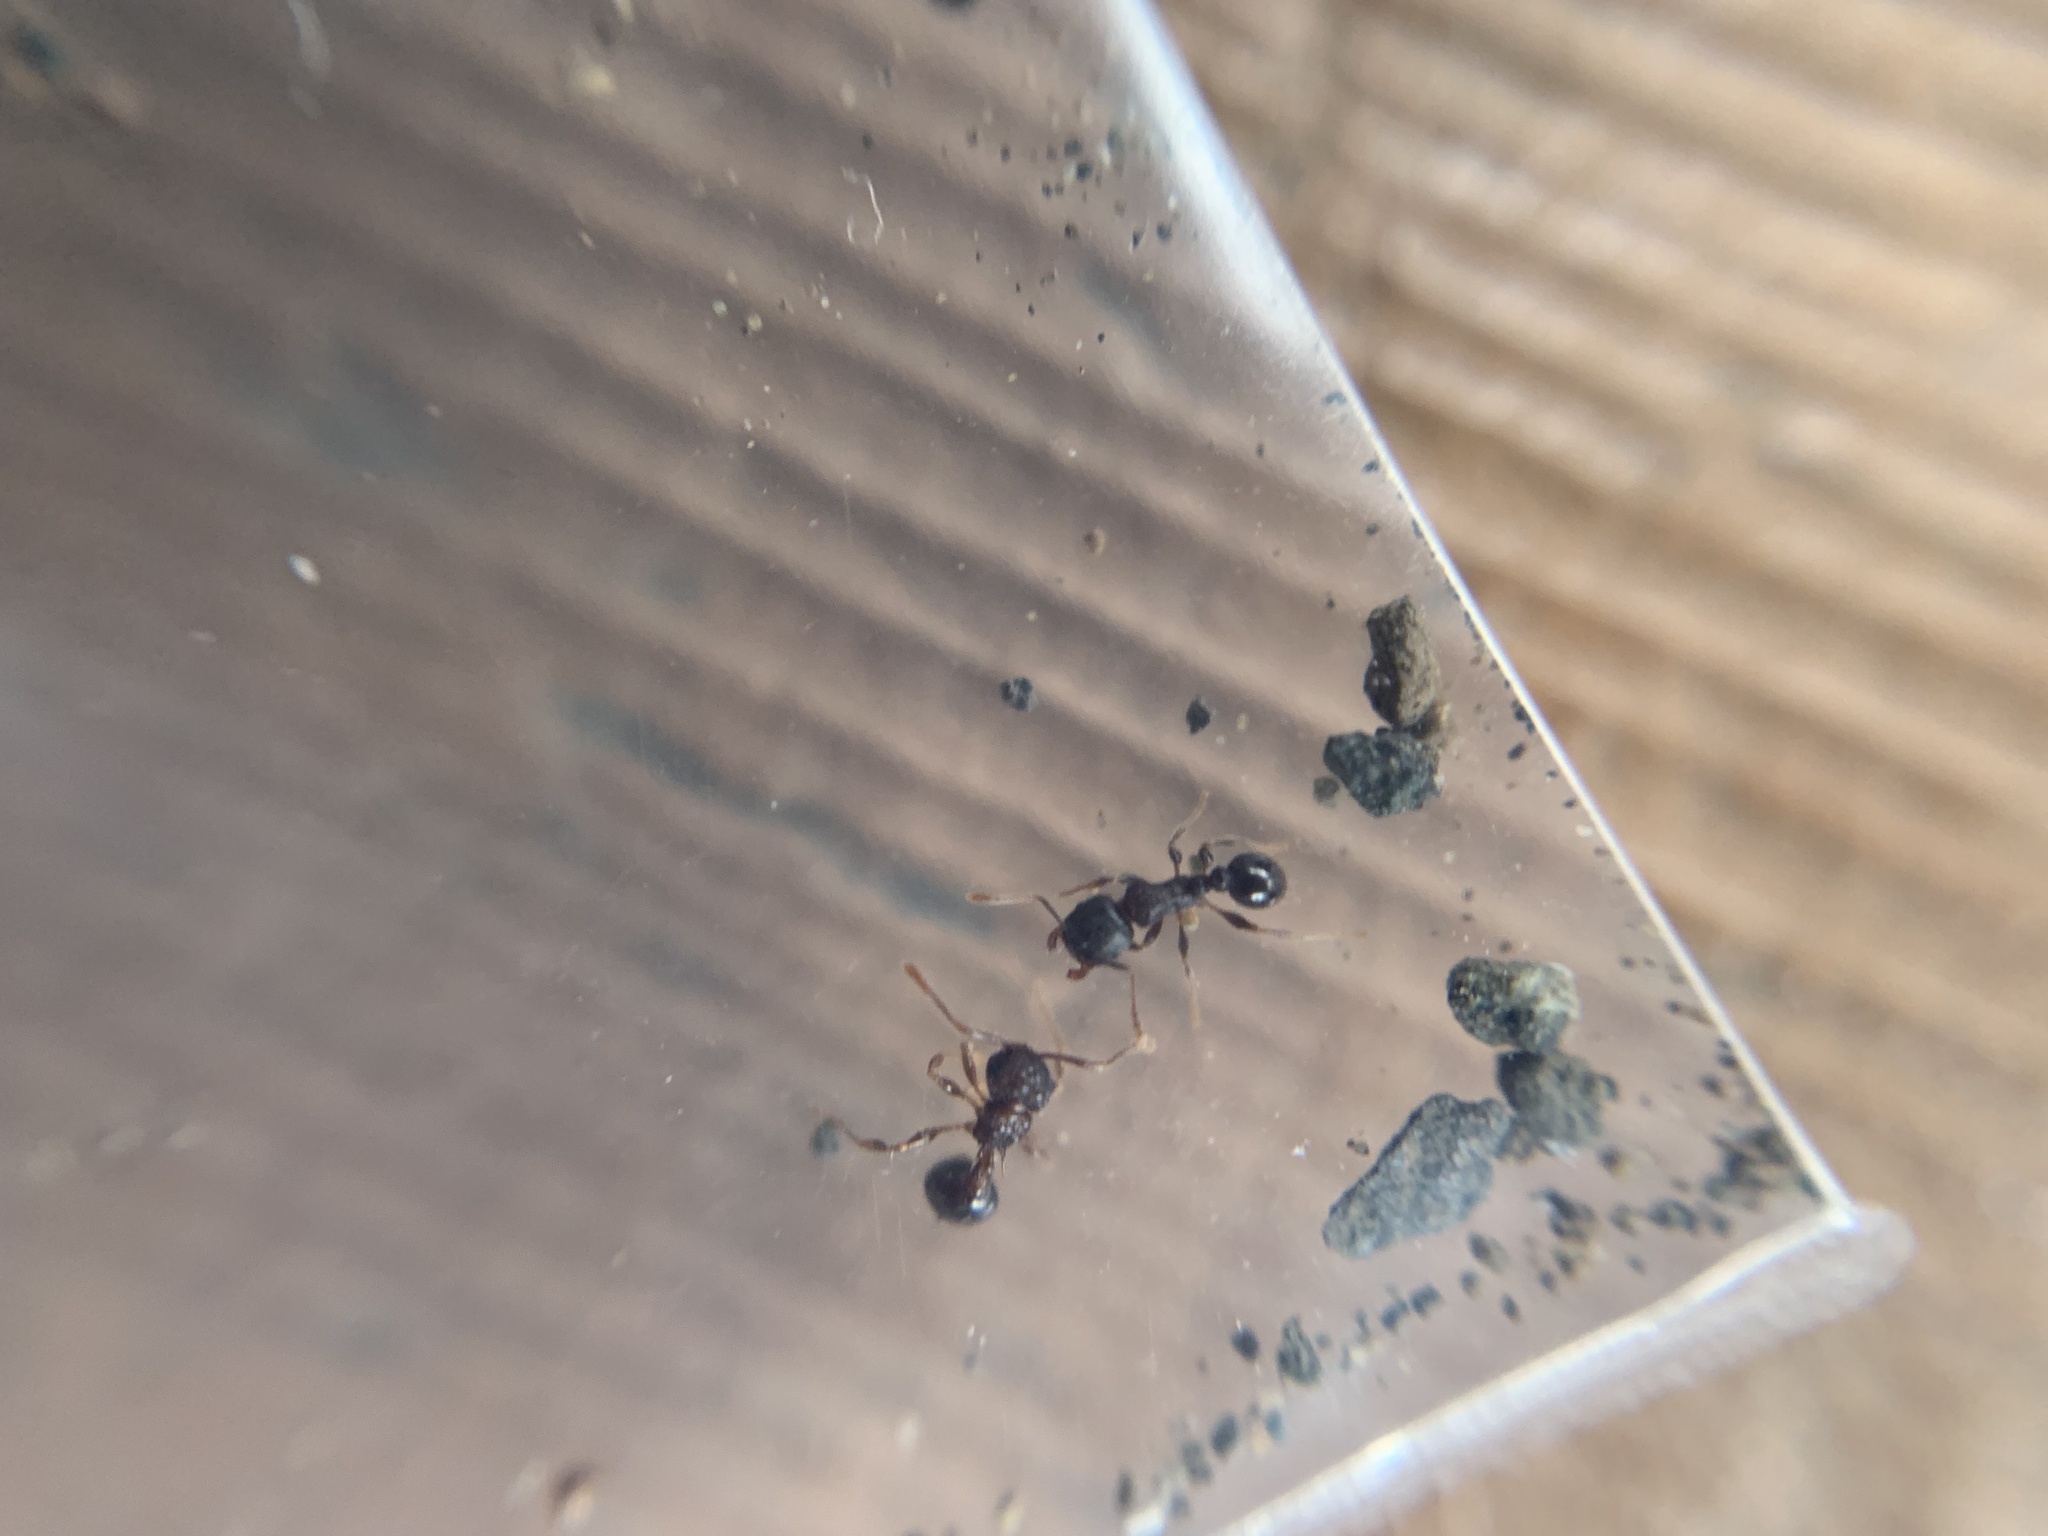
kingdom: Animalia
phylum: Arthropoda
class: Insecta
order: Hymenoptera
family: Formicidae
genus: Pristomyrmex
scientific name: Pristomyrmex punctatus
